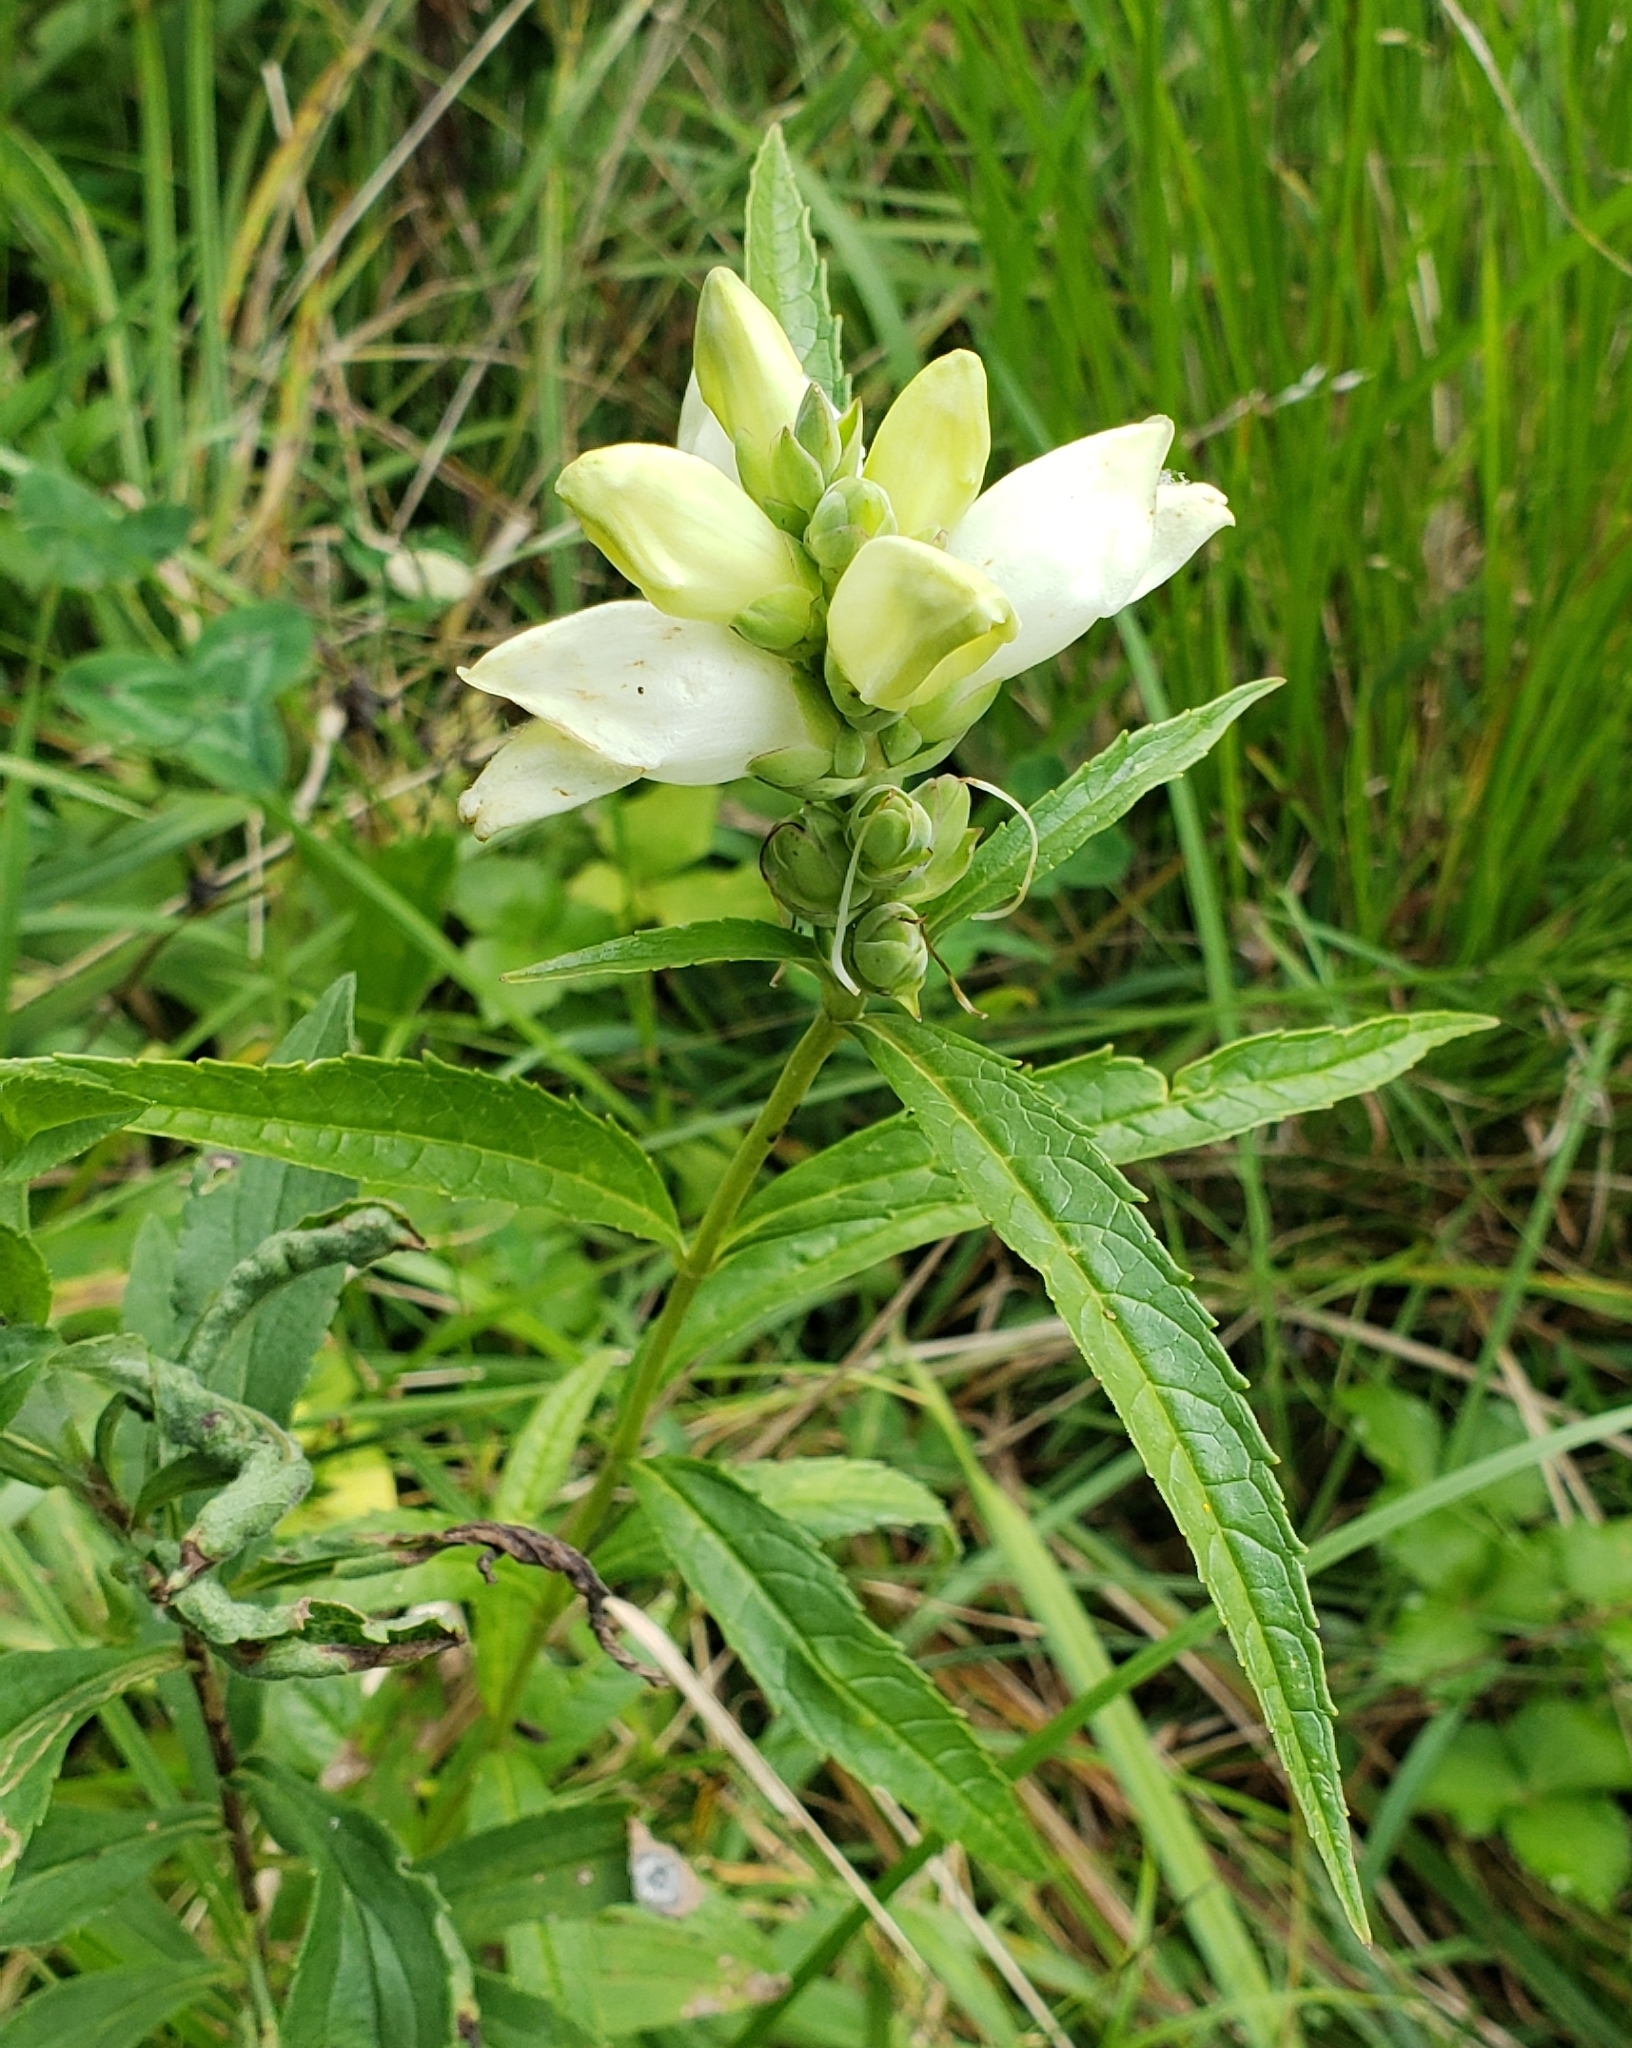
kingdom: Plantae
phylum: Tracheophyta
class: Magnoliopsida
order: Lamiales
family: Plantaginaceae
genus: Chelone
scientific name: Chelone glabra
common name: Snakehead
